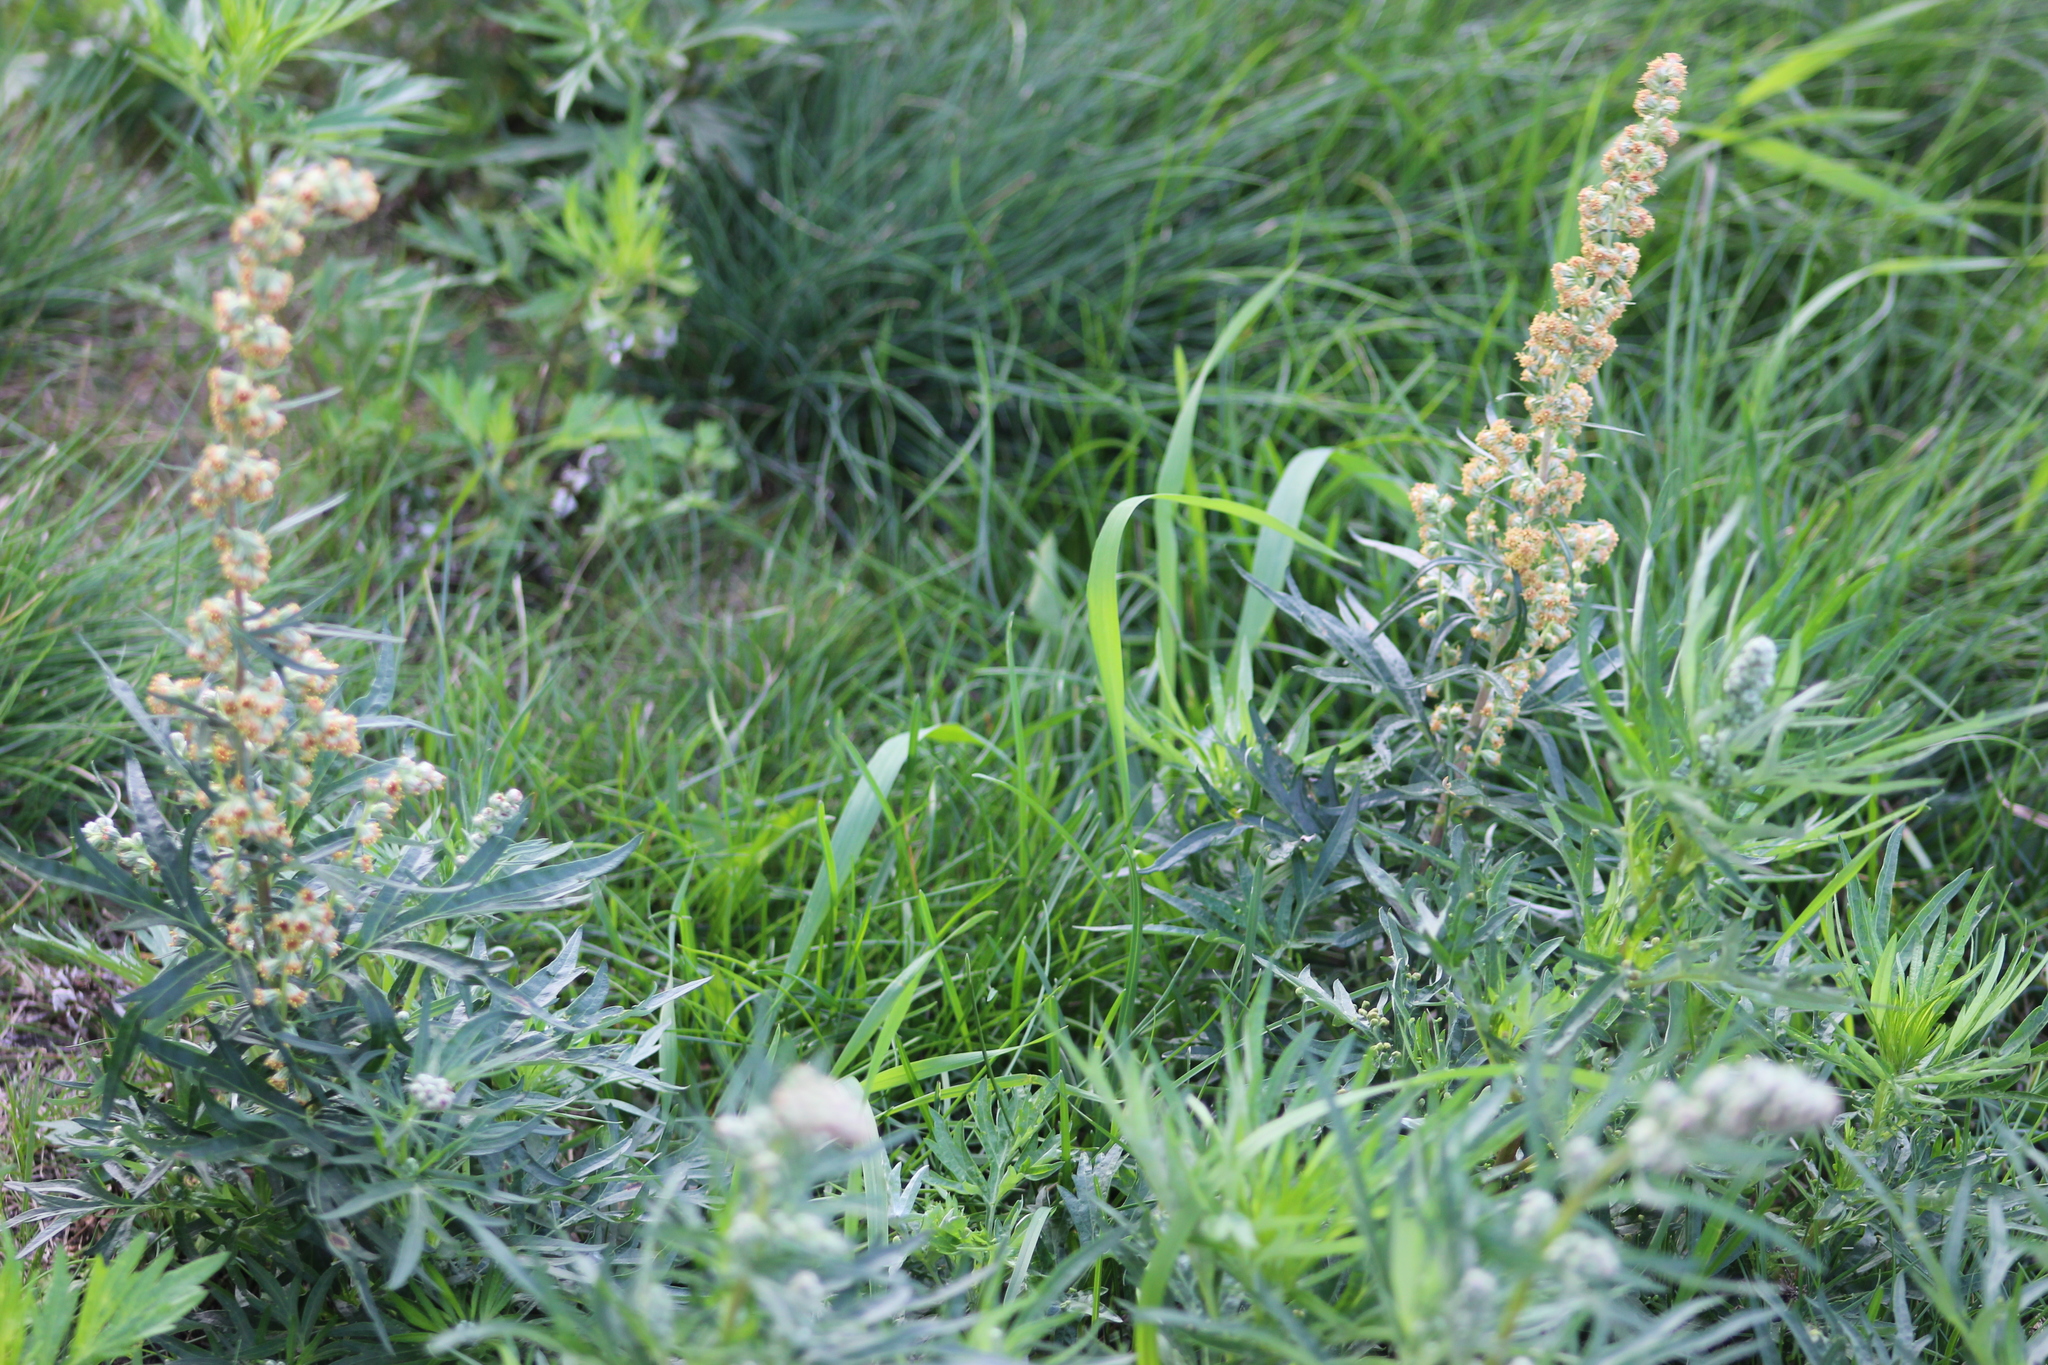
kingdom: Plantae
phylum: Tracheophyta
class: Magnoliopsida
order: Asterales
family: Asteraceae
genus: Artemisia
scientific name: Artemisia vulgaris
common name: Mugwort
